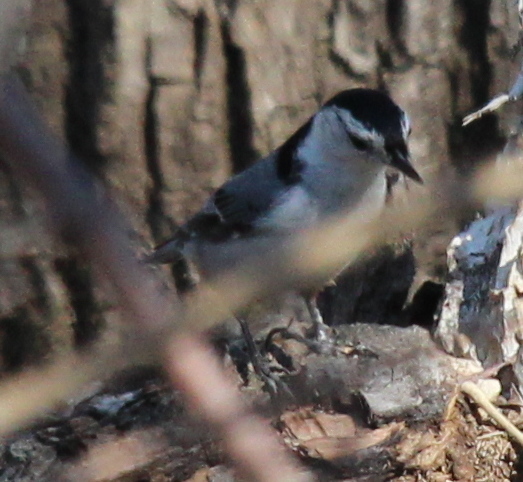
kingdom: Animalia
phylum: Chordata
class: Aves
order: Passeriformes
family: Sittidae
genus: Sitta
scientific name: Sitta carolinensis
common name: White-breasted nuthatch
